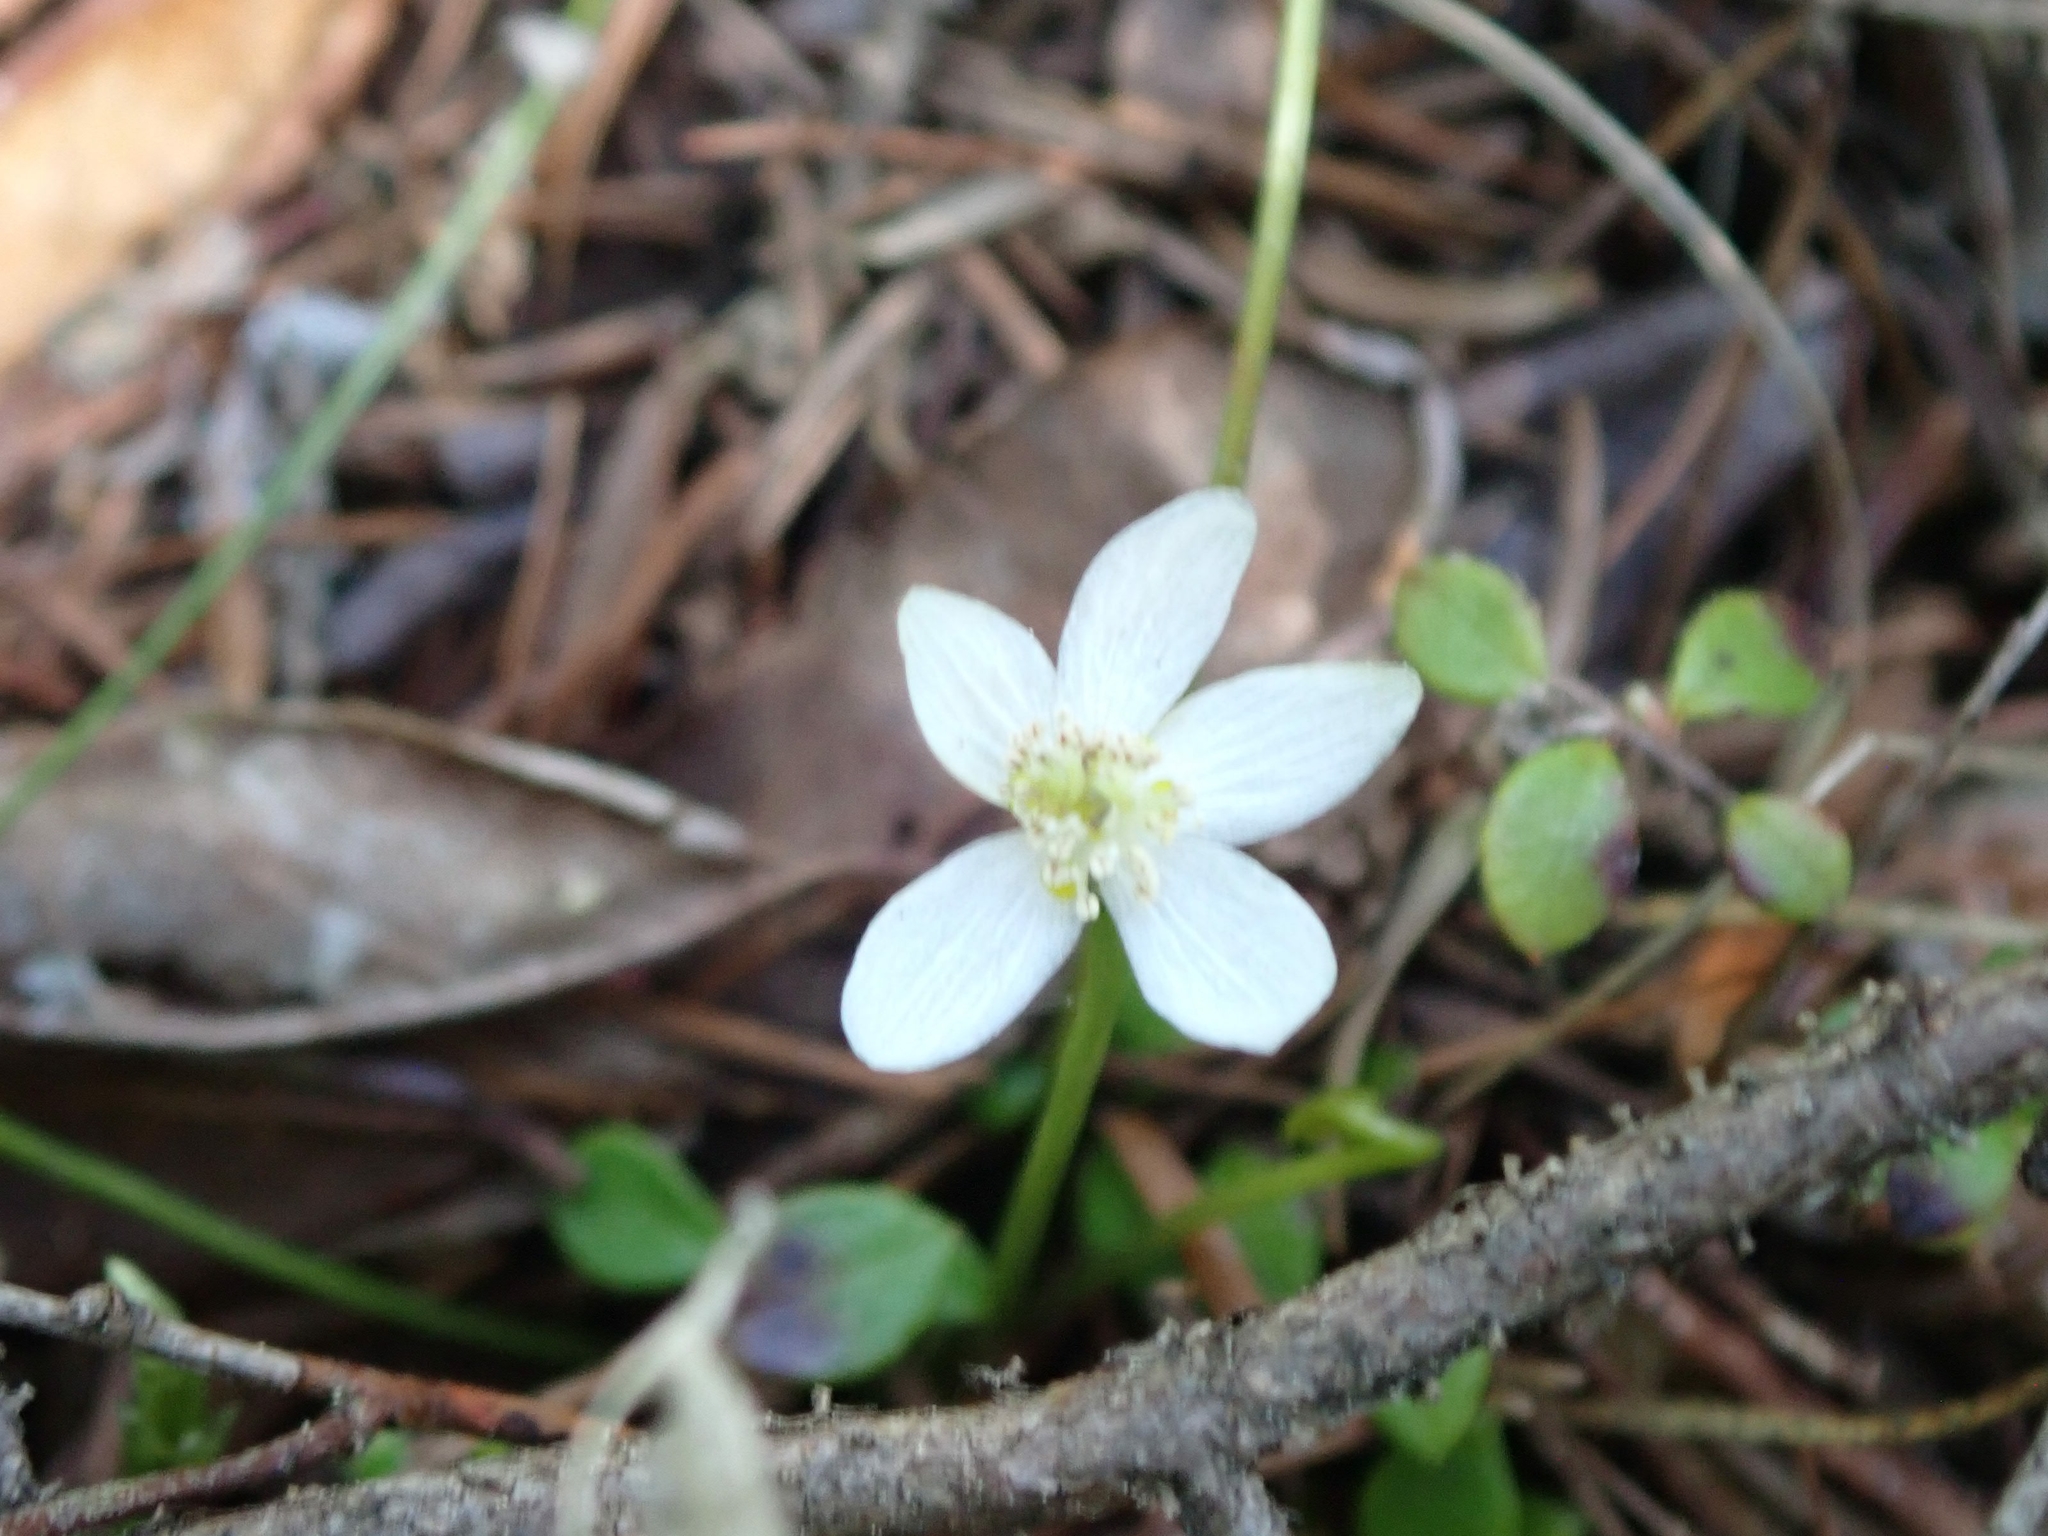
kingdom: Plantae
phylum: Tracheophyta
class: Magnoliopsida
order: Ranunculales
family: Ranunculaceae
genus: Coptis
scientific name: Coptis trifolia
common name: Canker-root
